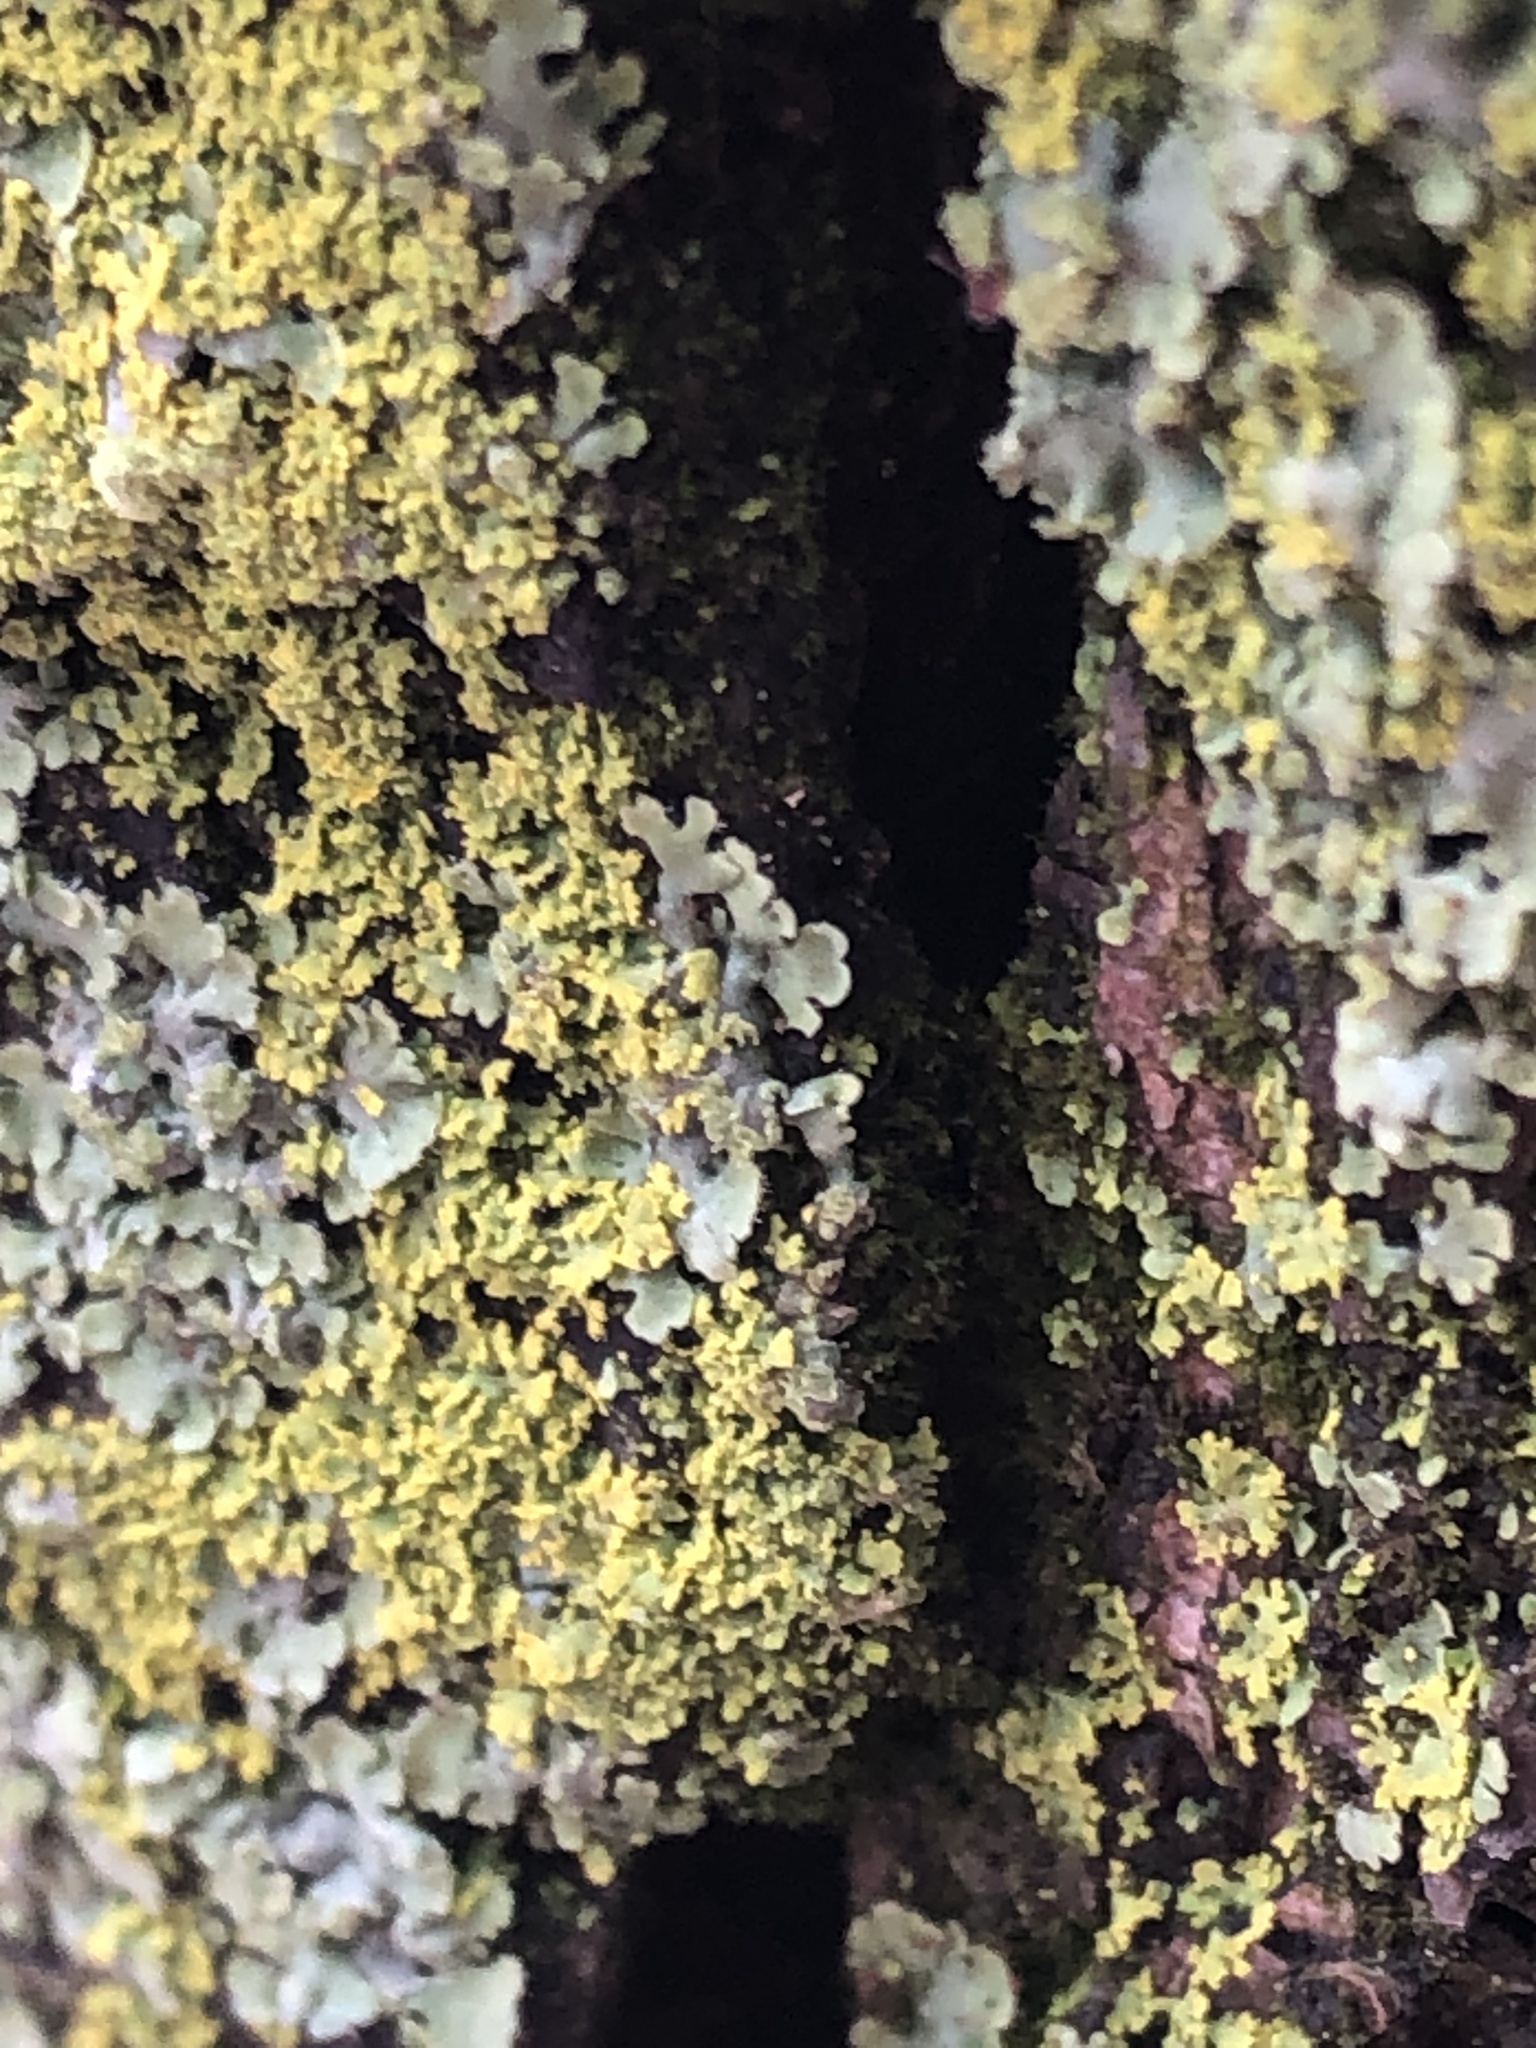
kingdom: Fungi
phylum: Ascomycota
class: Candelariomycetes
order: Candelariales
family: Candelariaceae
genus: Candelaria
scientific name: Candelaria concolor
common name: Candleflame lichen
